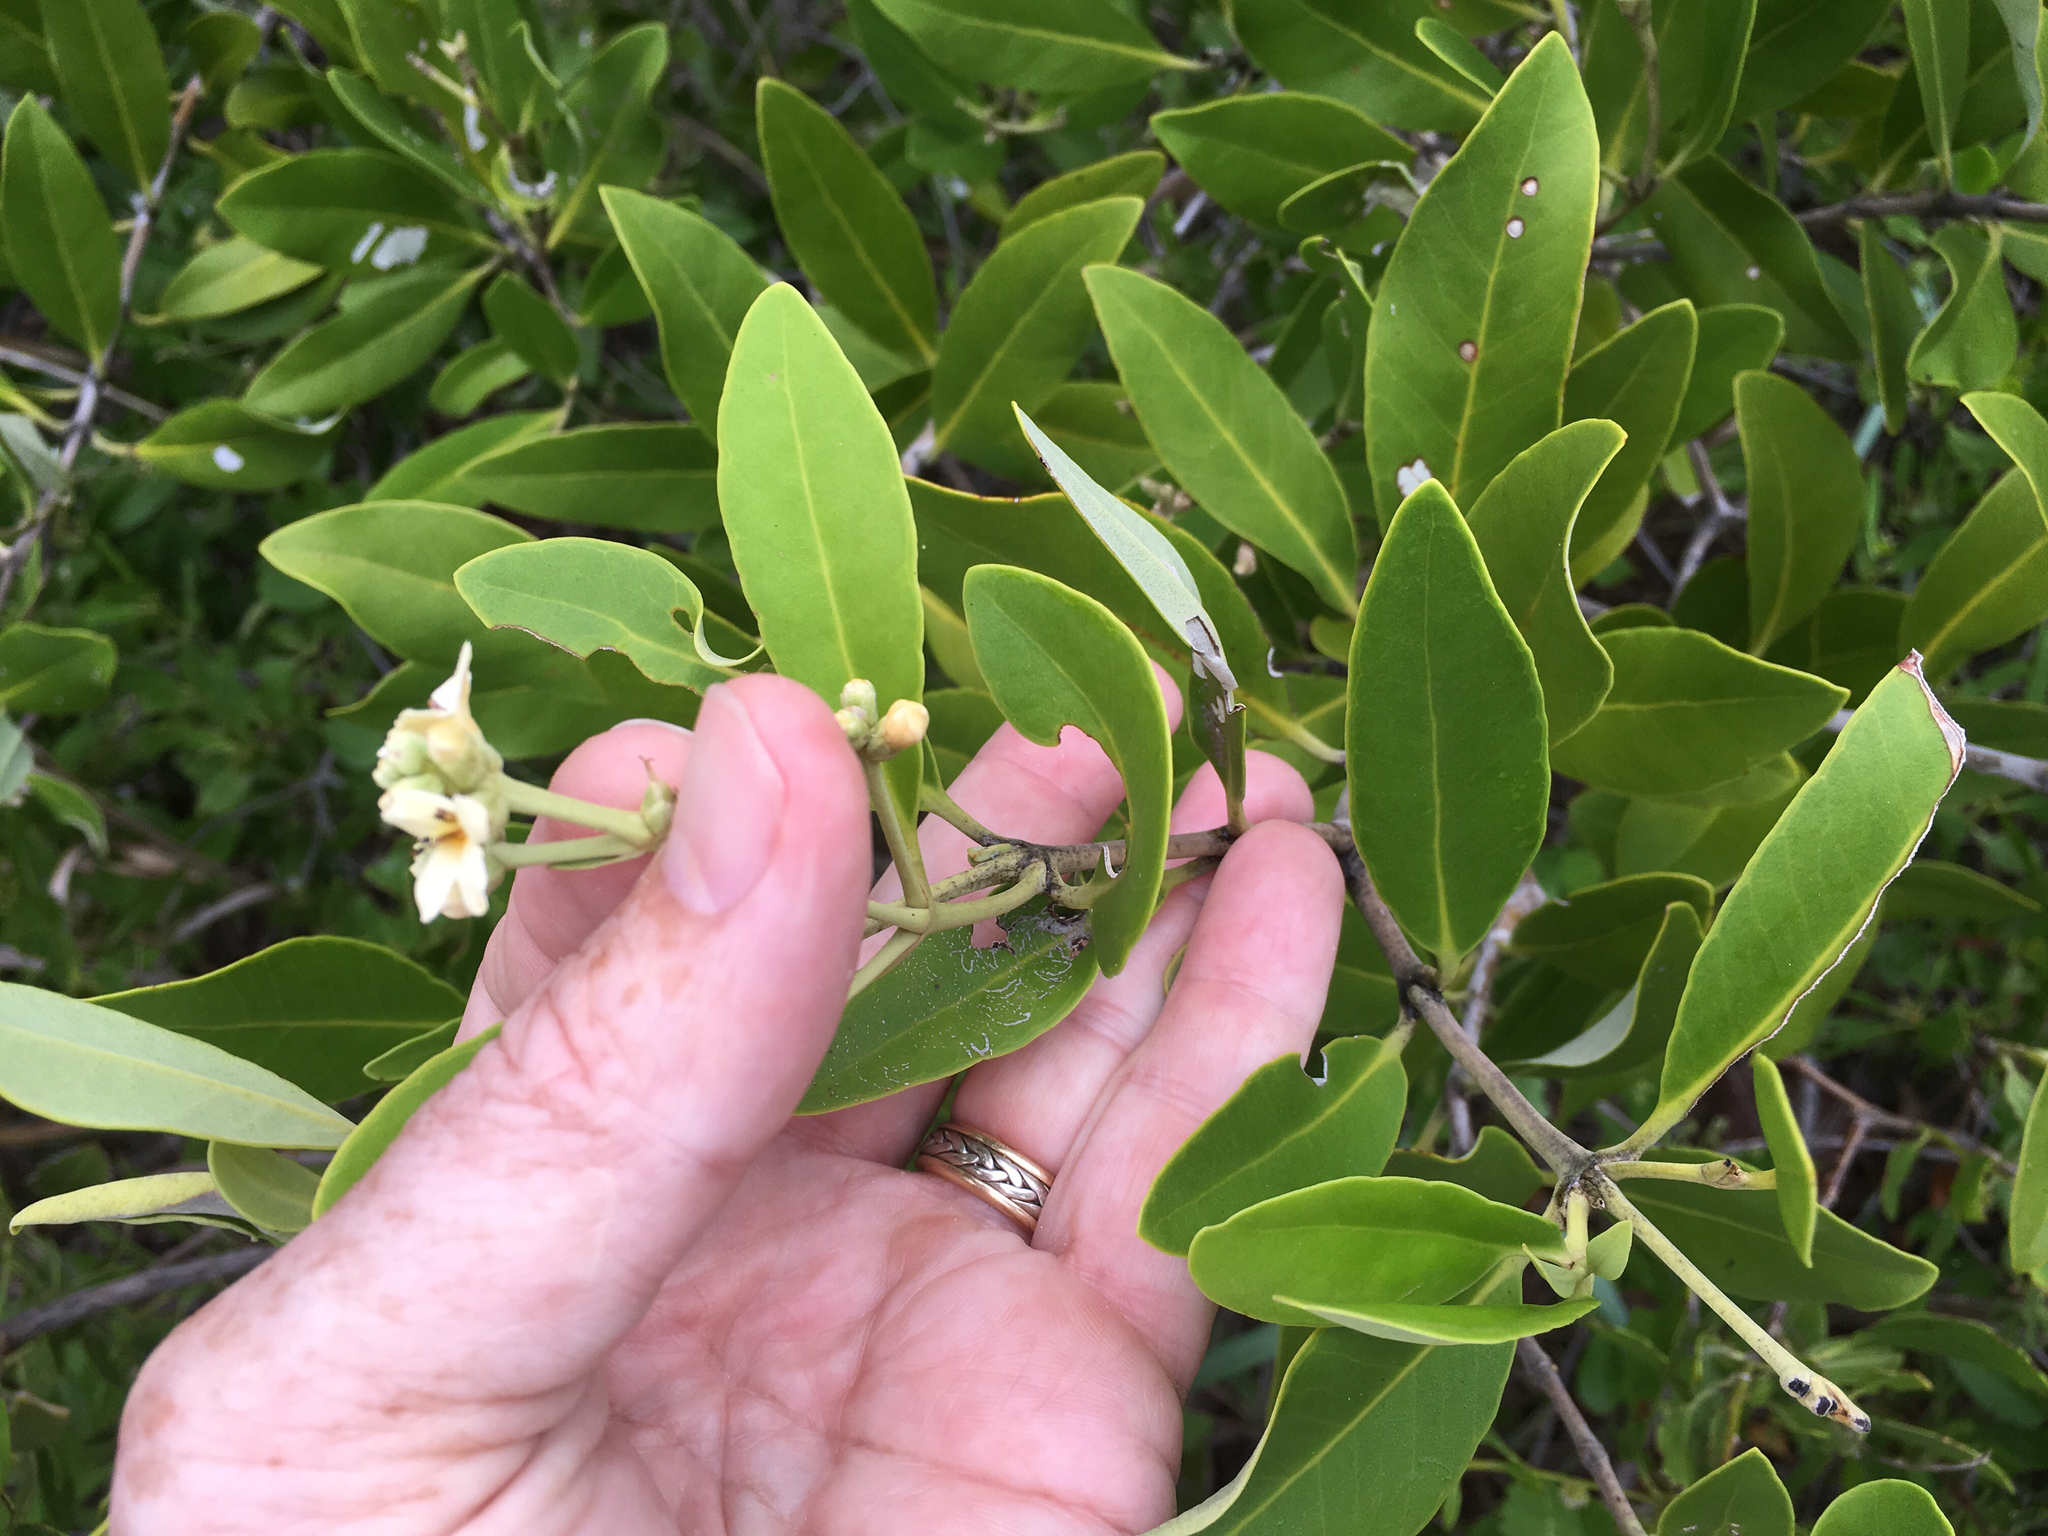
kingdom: Plantae
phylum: Tracheophyta
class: Magnoliopsida
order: Lamiales
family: Acanthaceae
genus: Avicennia
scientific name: Avicennia germinans
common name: Black mangrove
